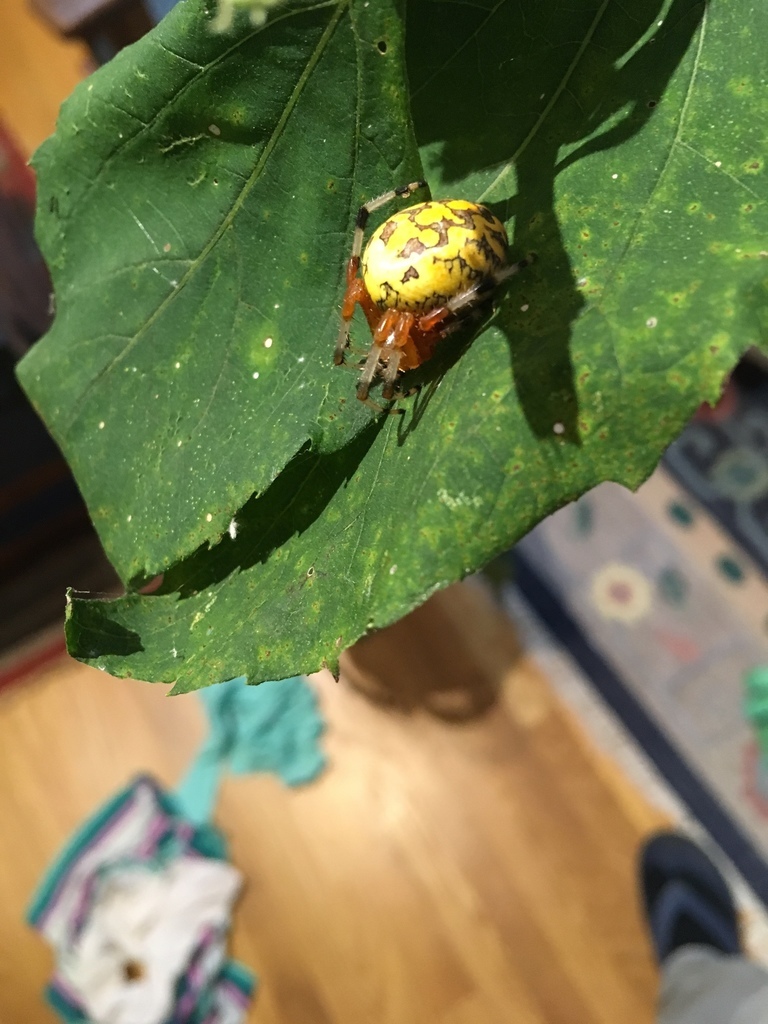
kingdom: Animalia
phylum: Arthropoda
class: Arachnida
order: Araneae
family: Araneidae
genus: Araneus
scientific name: Araneus marmoreus
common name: Marbled orbweaver
